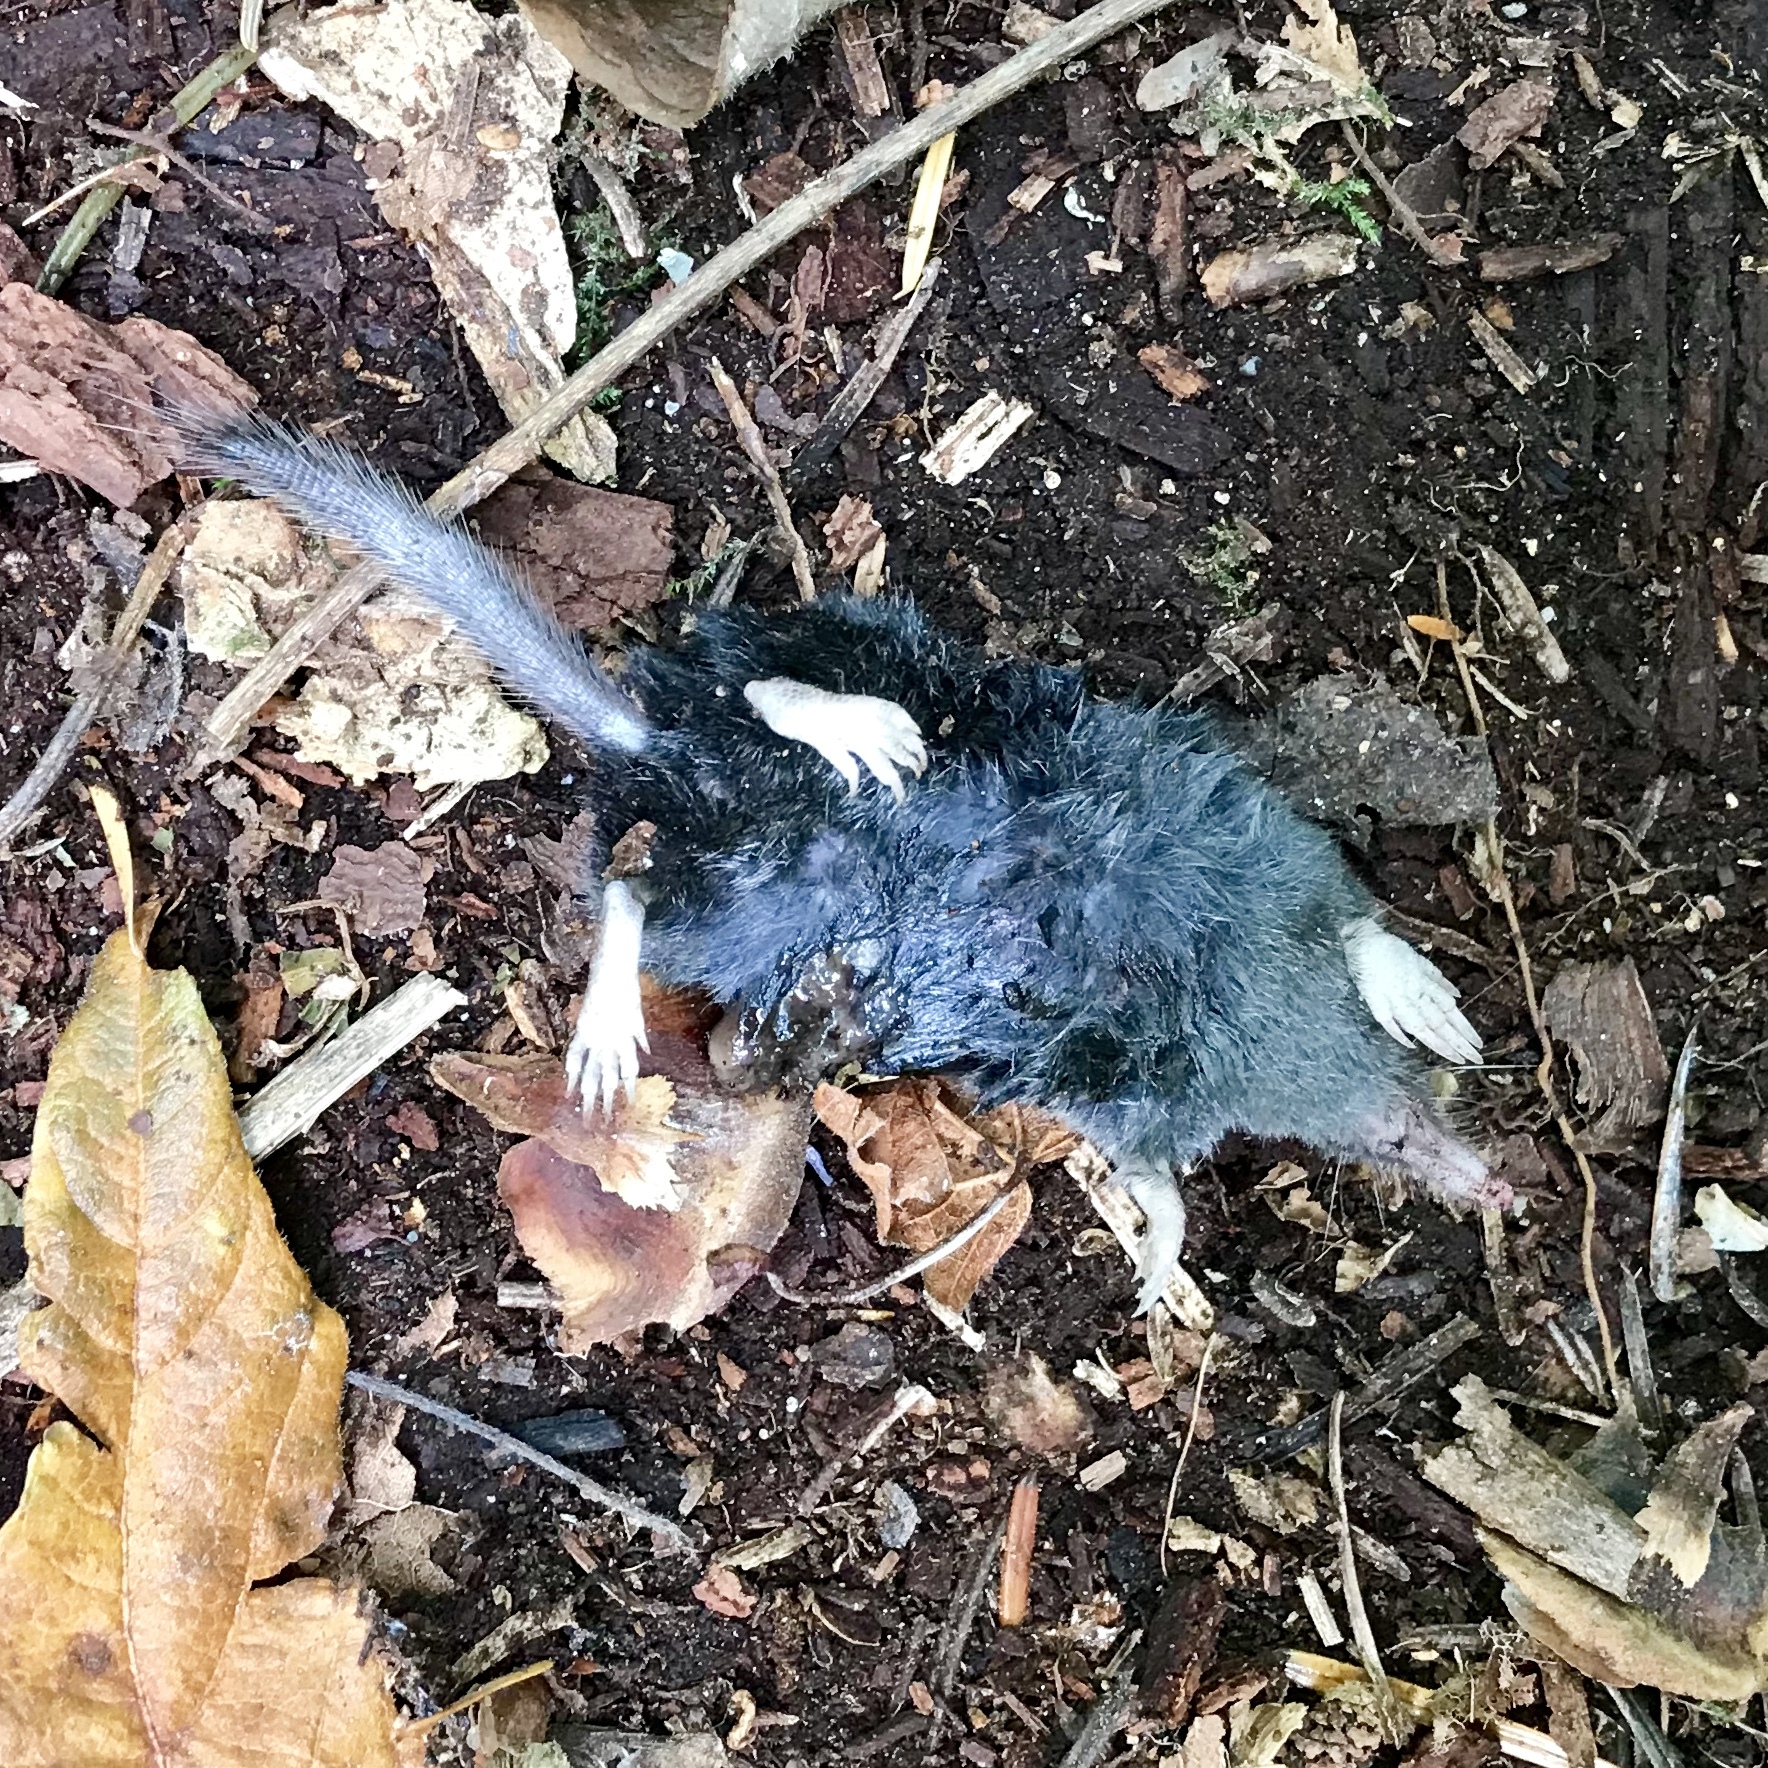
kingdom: Animalia
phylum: Chordata
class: Mammalia
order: Soricomorpha
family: Talpidae
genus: Neurotrichus
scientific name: Neurotrichus gibbsii
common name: American shrew mole
